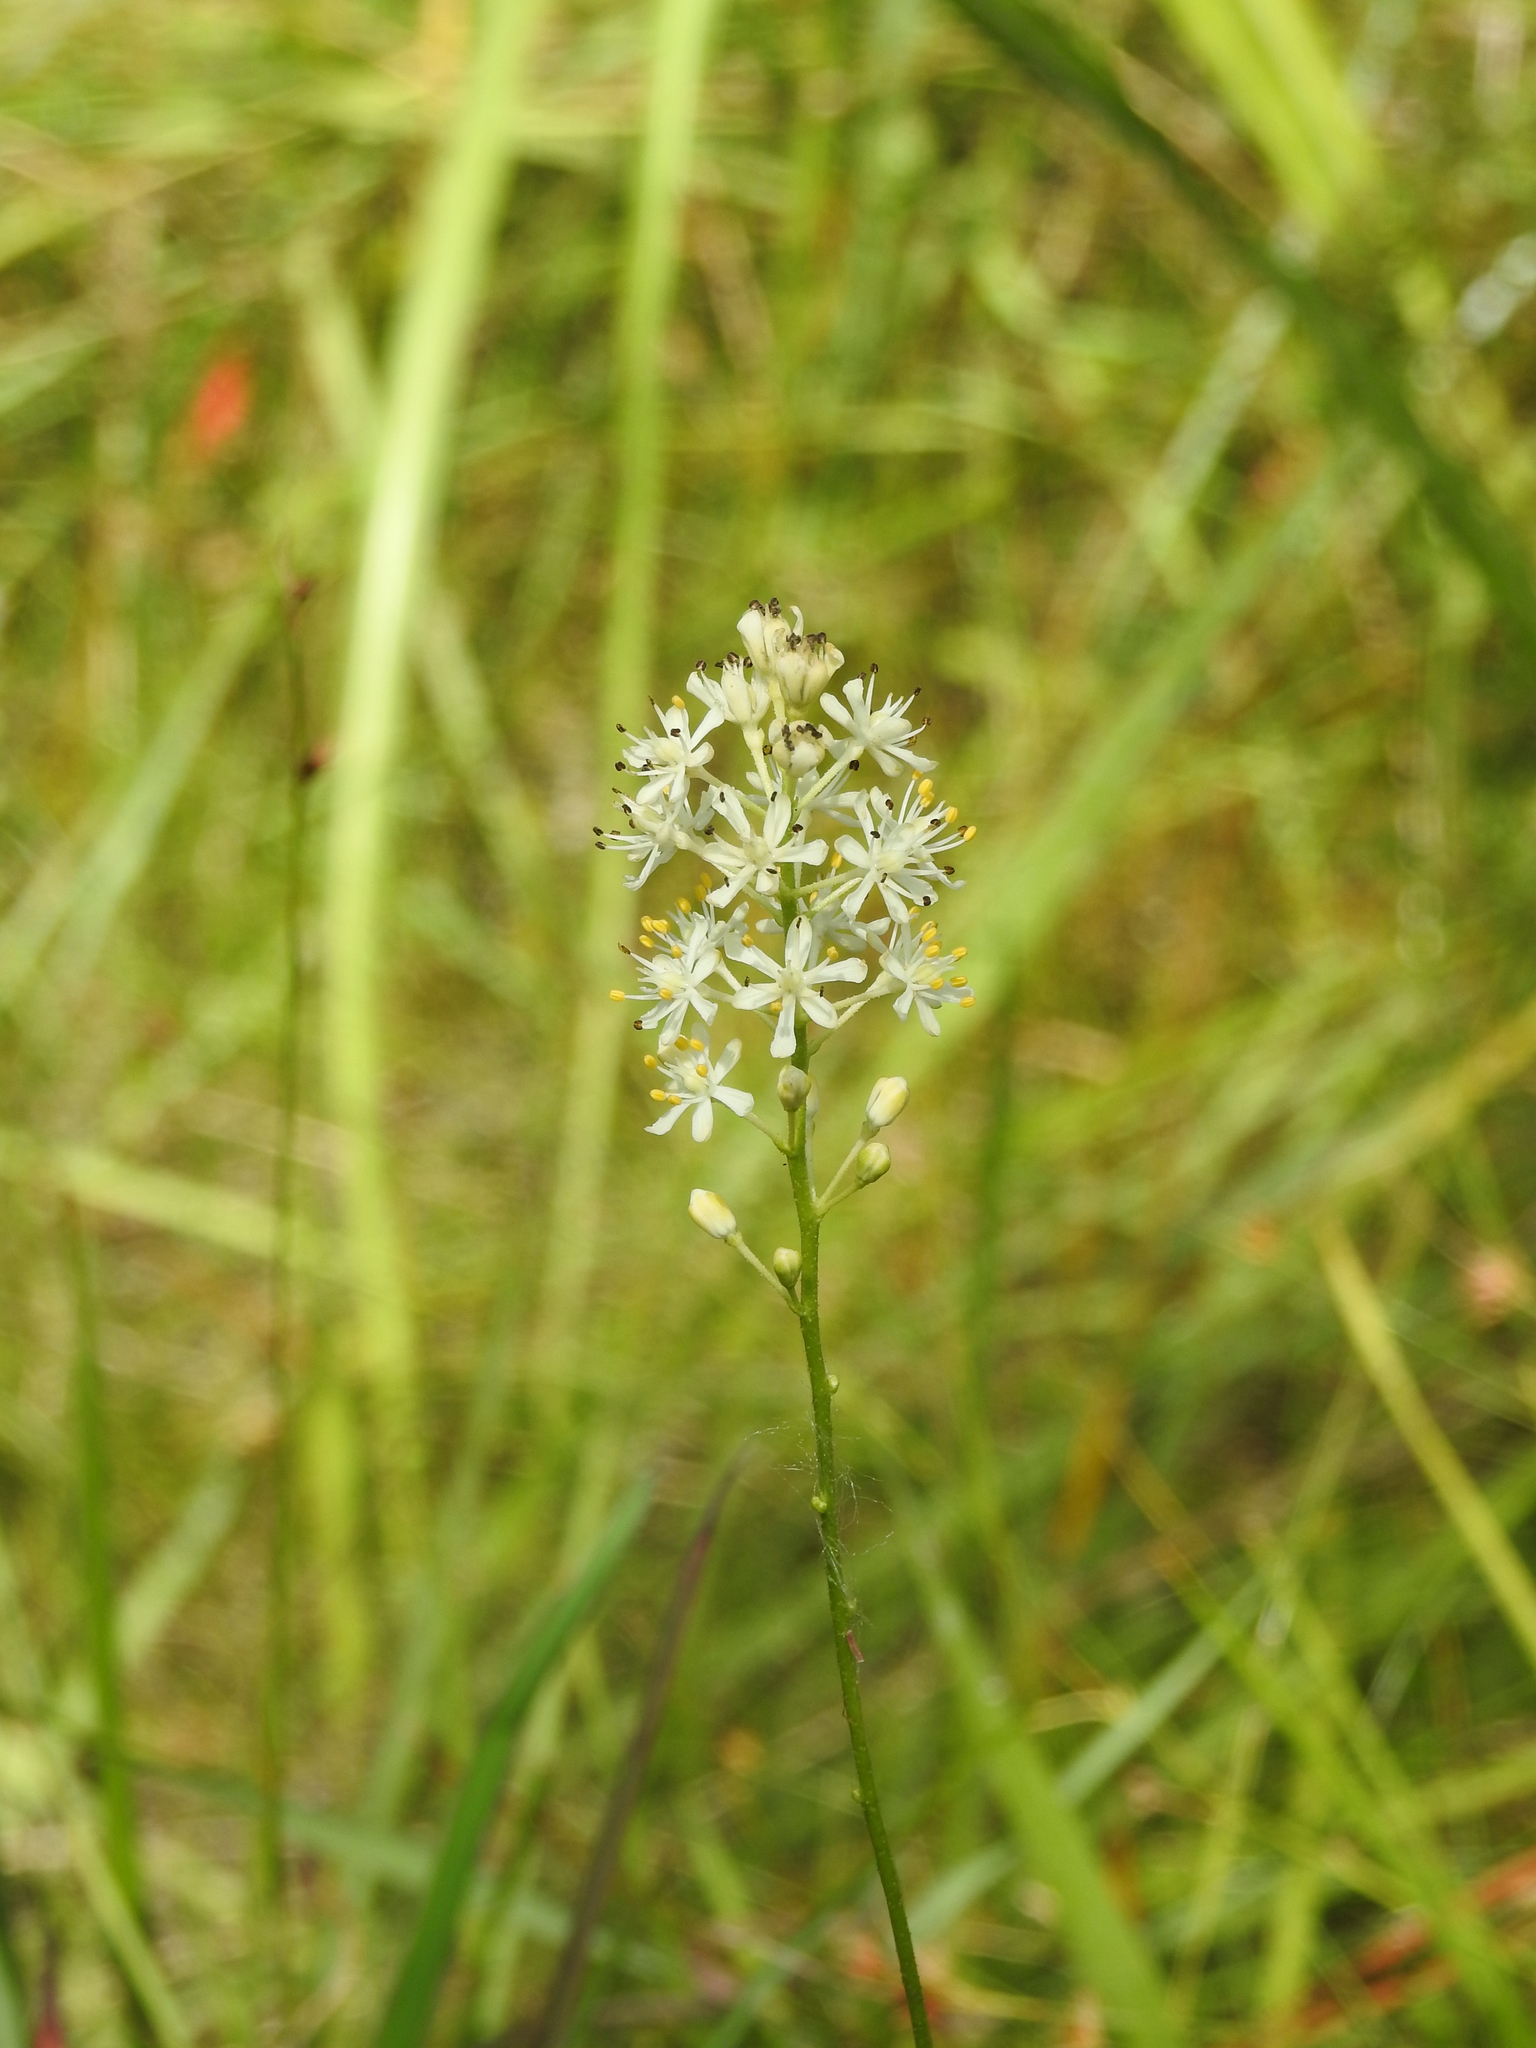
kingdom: Plantae
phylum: Tracheophyta
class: Liliopsida
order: Alismatales
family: Tofieldiaceae
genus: Triantha
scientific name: Triantha racemosa
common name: Coastal false asphodel
